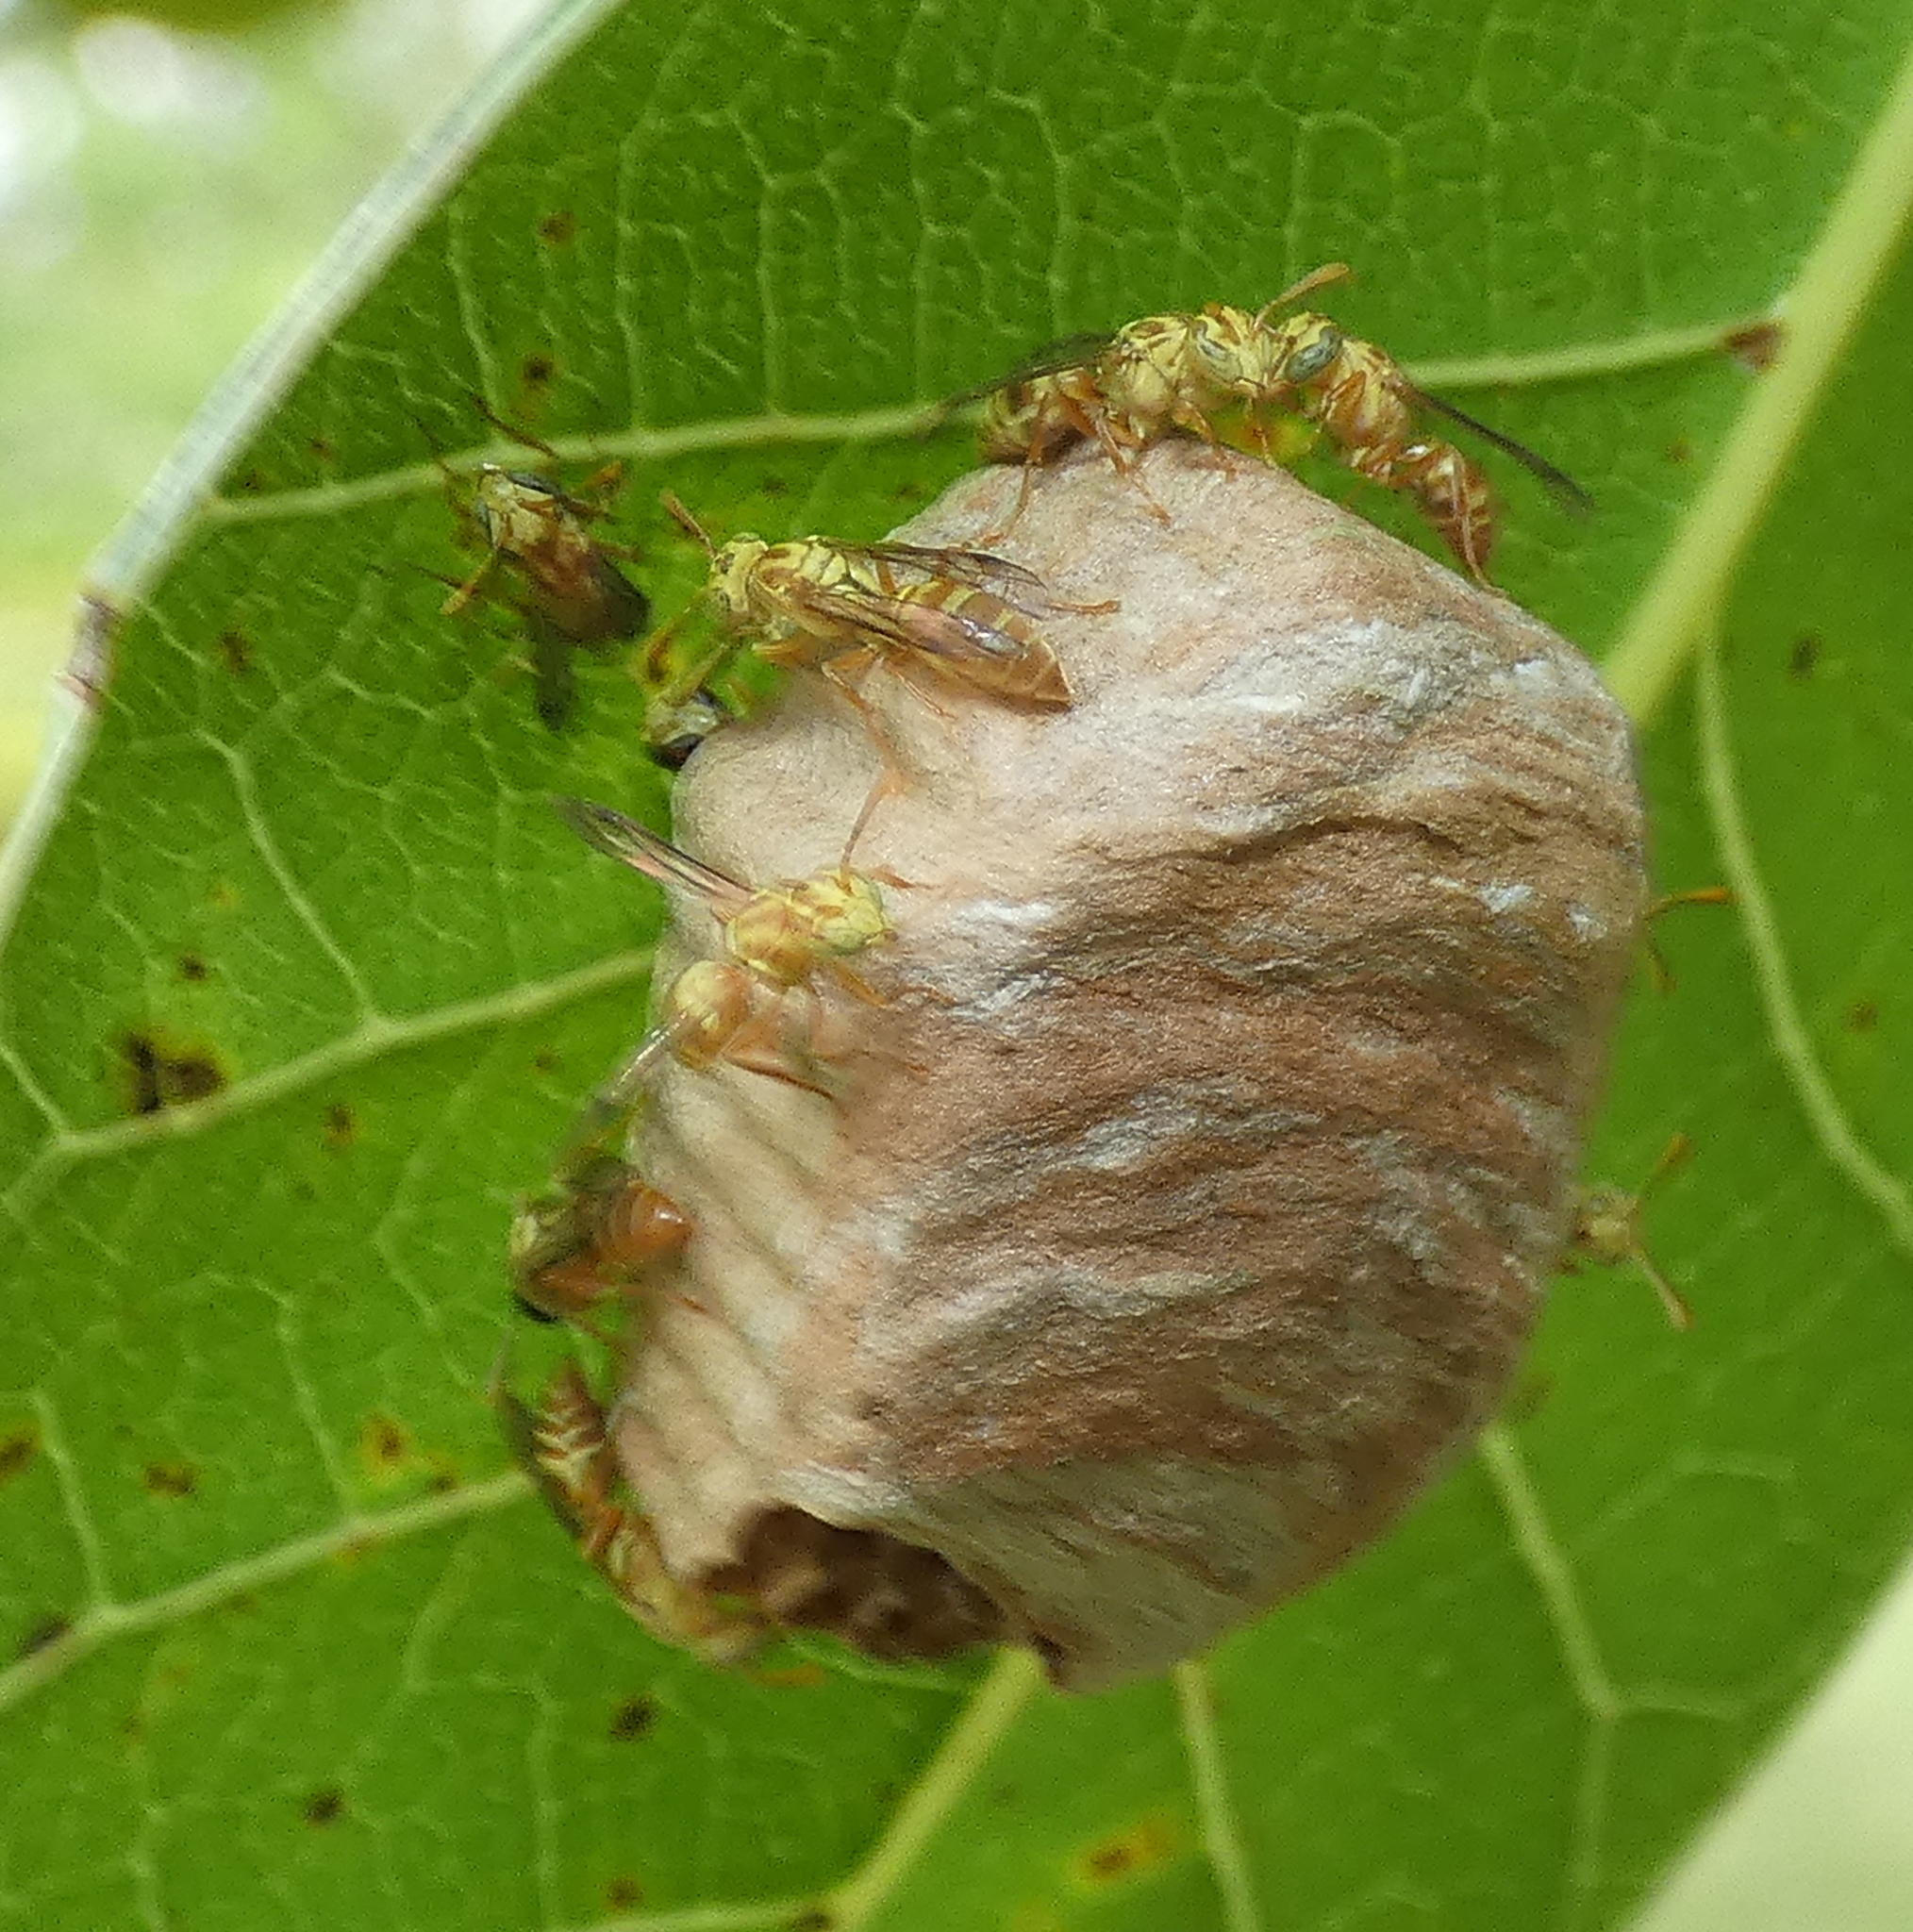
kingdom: Animalia
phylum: Arthropoda
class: Insecta
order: Hymenoptera
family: Vespidae
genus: Protopolybia
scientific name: Protopolybia potiguara
